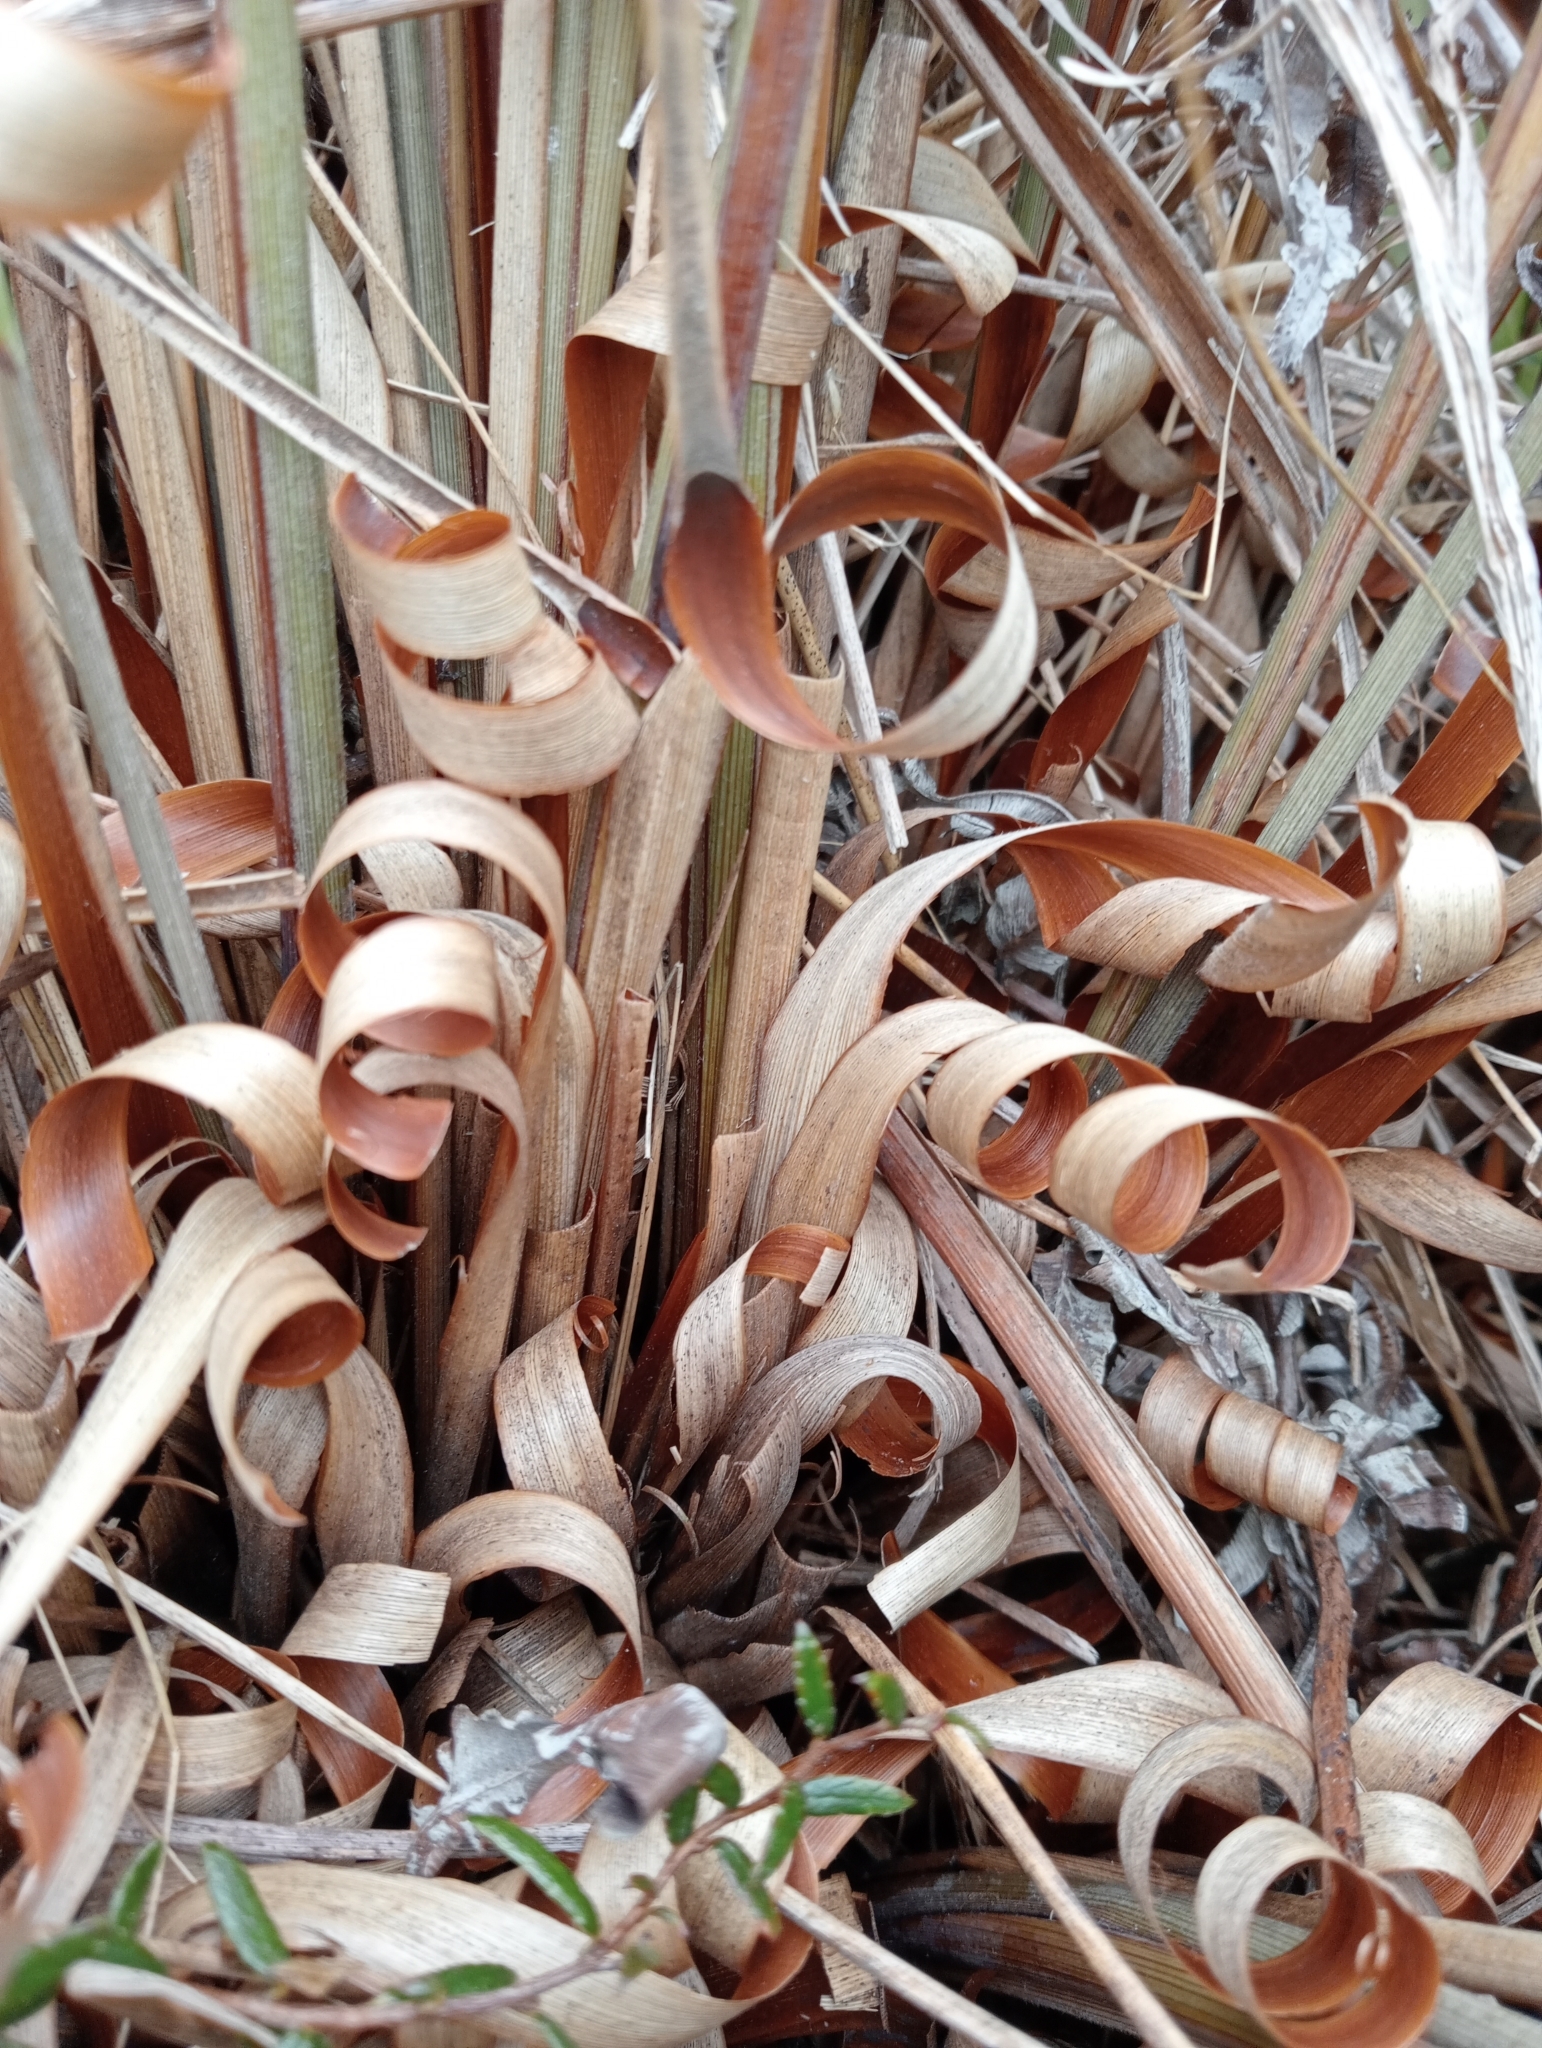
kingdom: Plantae
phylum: Tracheophyta
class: Liliopsida
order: Poales
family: Poaceae
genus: Chionochloa
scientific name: Chionochloa rigida
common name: Narrow leaved snow tussock
